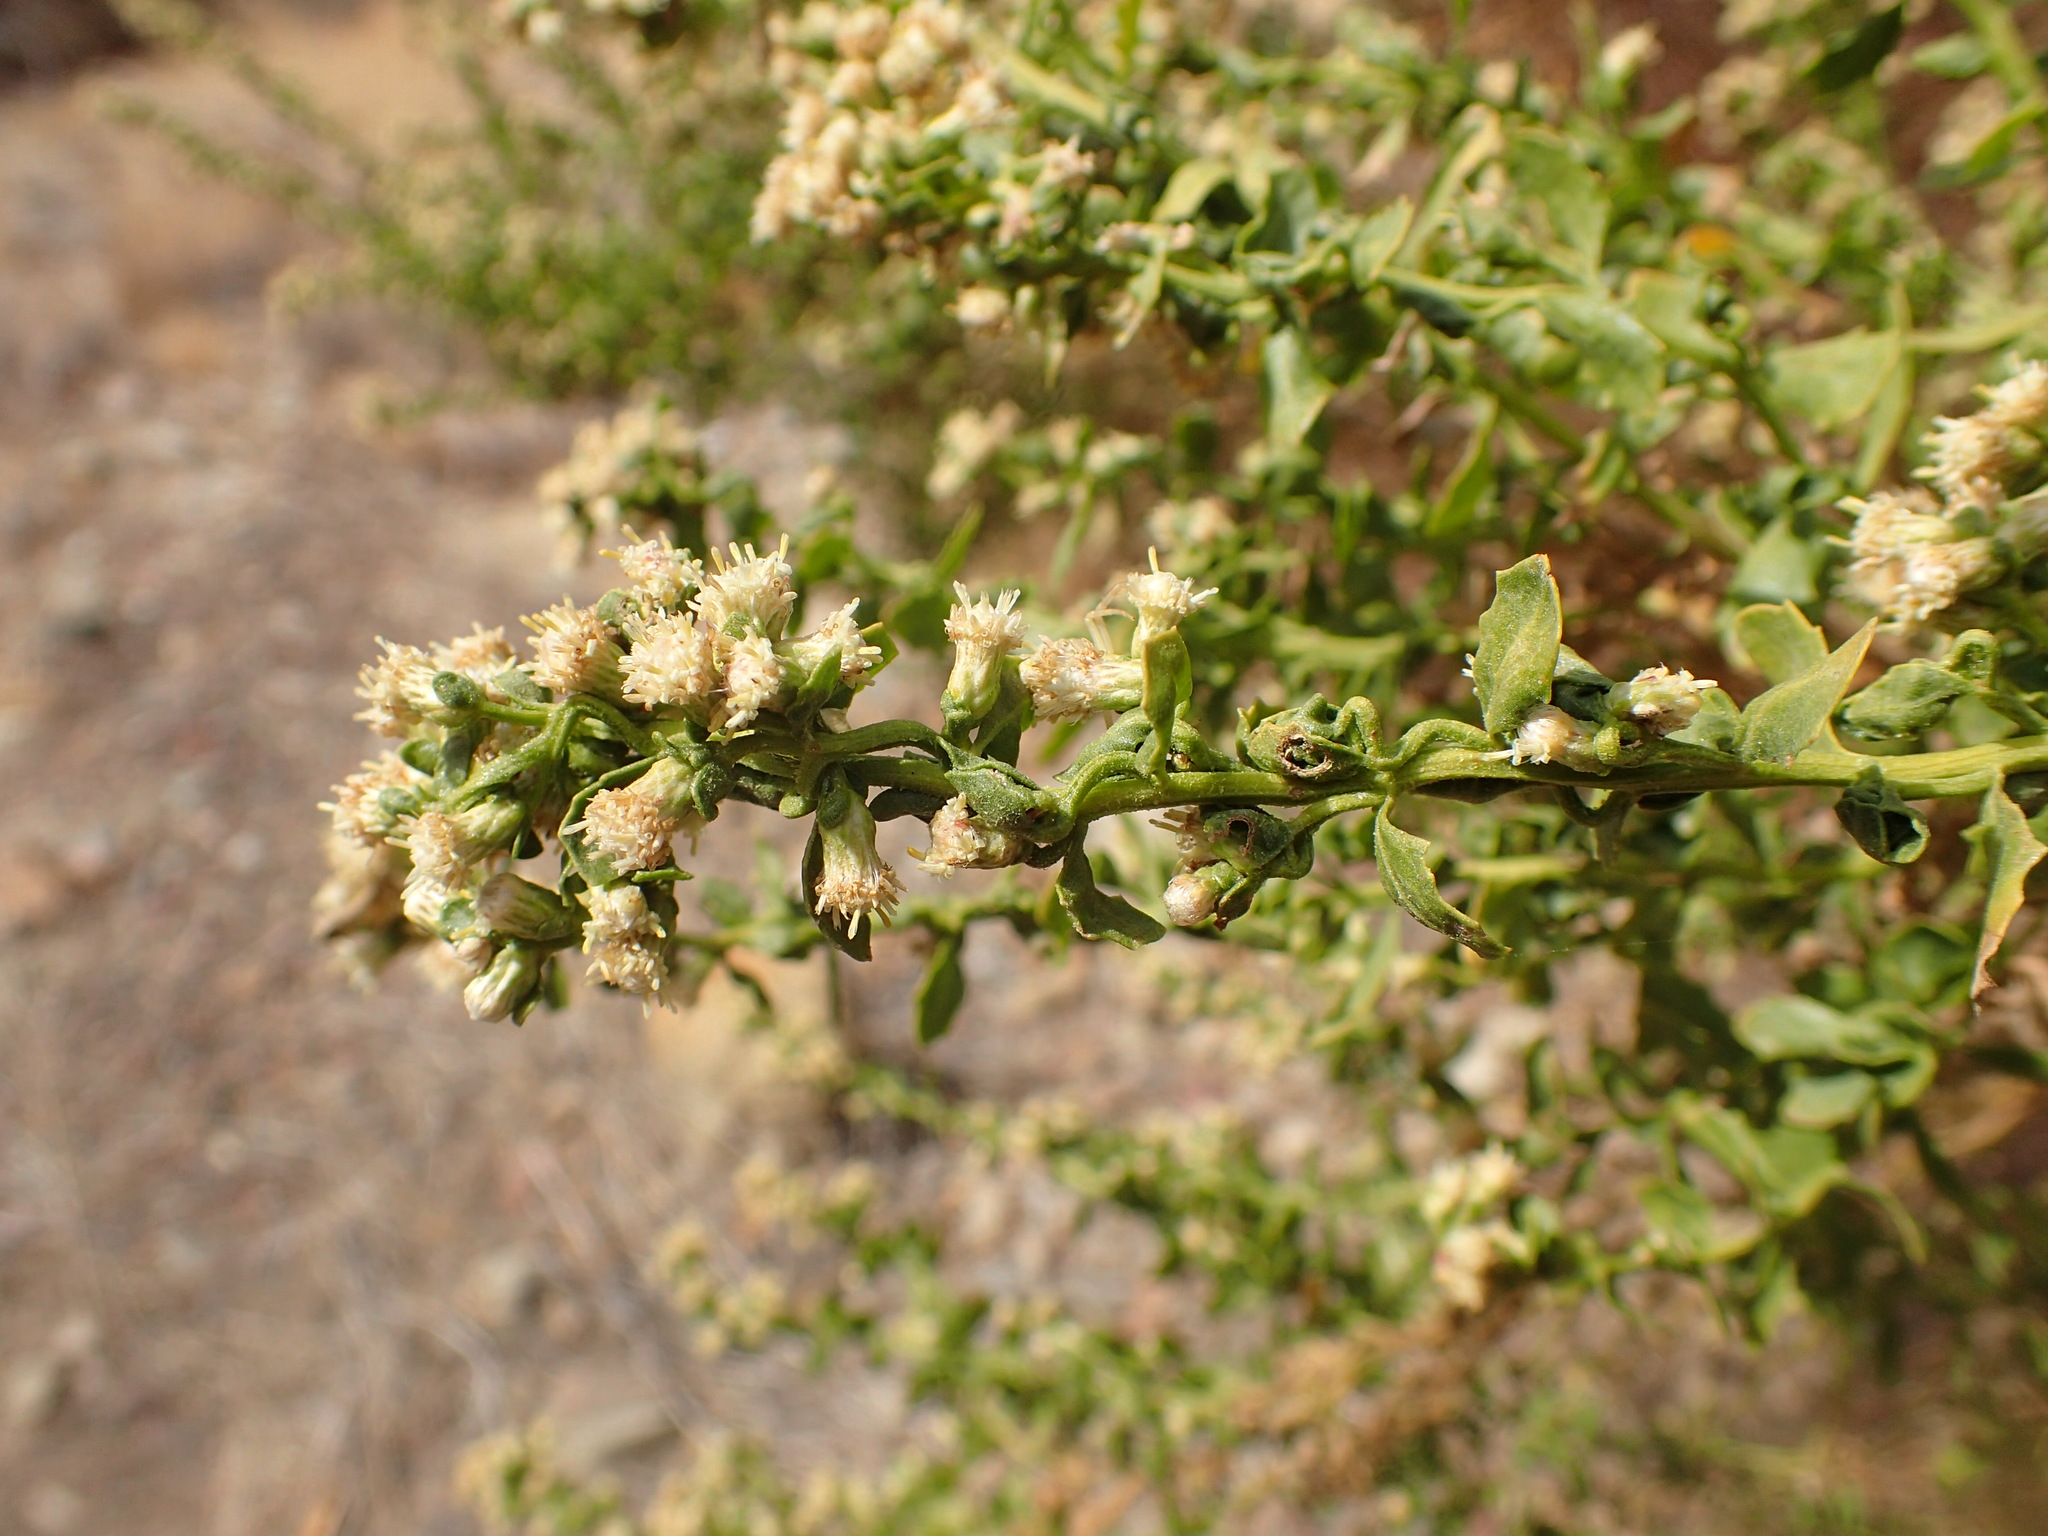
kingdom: Plantae
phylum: Tracheophyta
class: Magnoliopsida
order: Asterales
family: Asteraceae
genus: Baccharis
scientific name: Baccharis pilularis
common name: Coyotebrush
